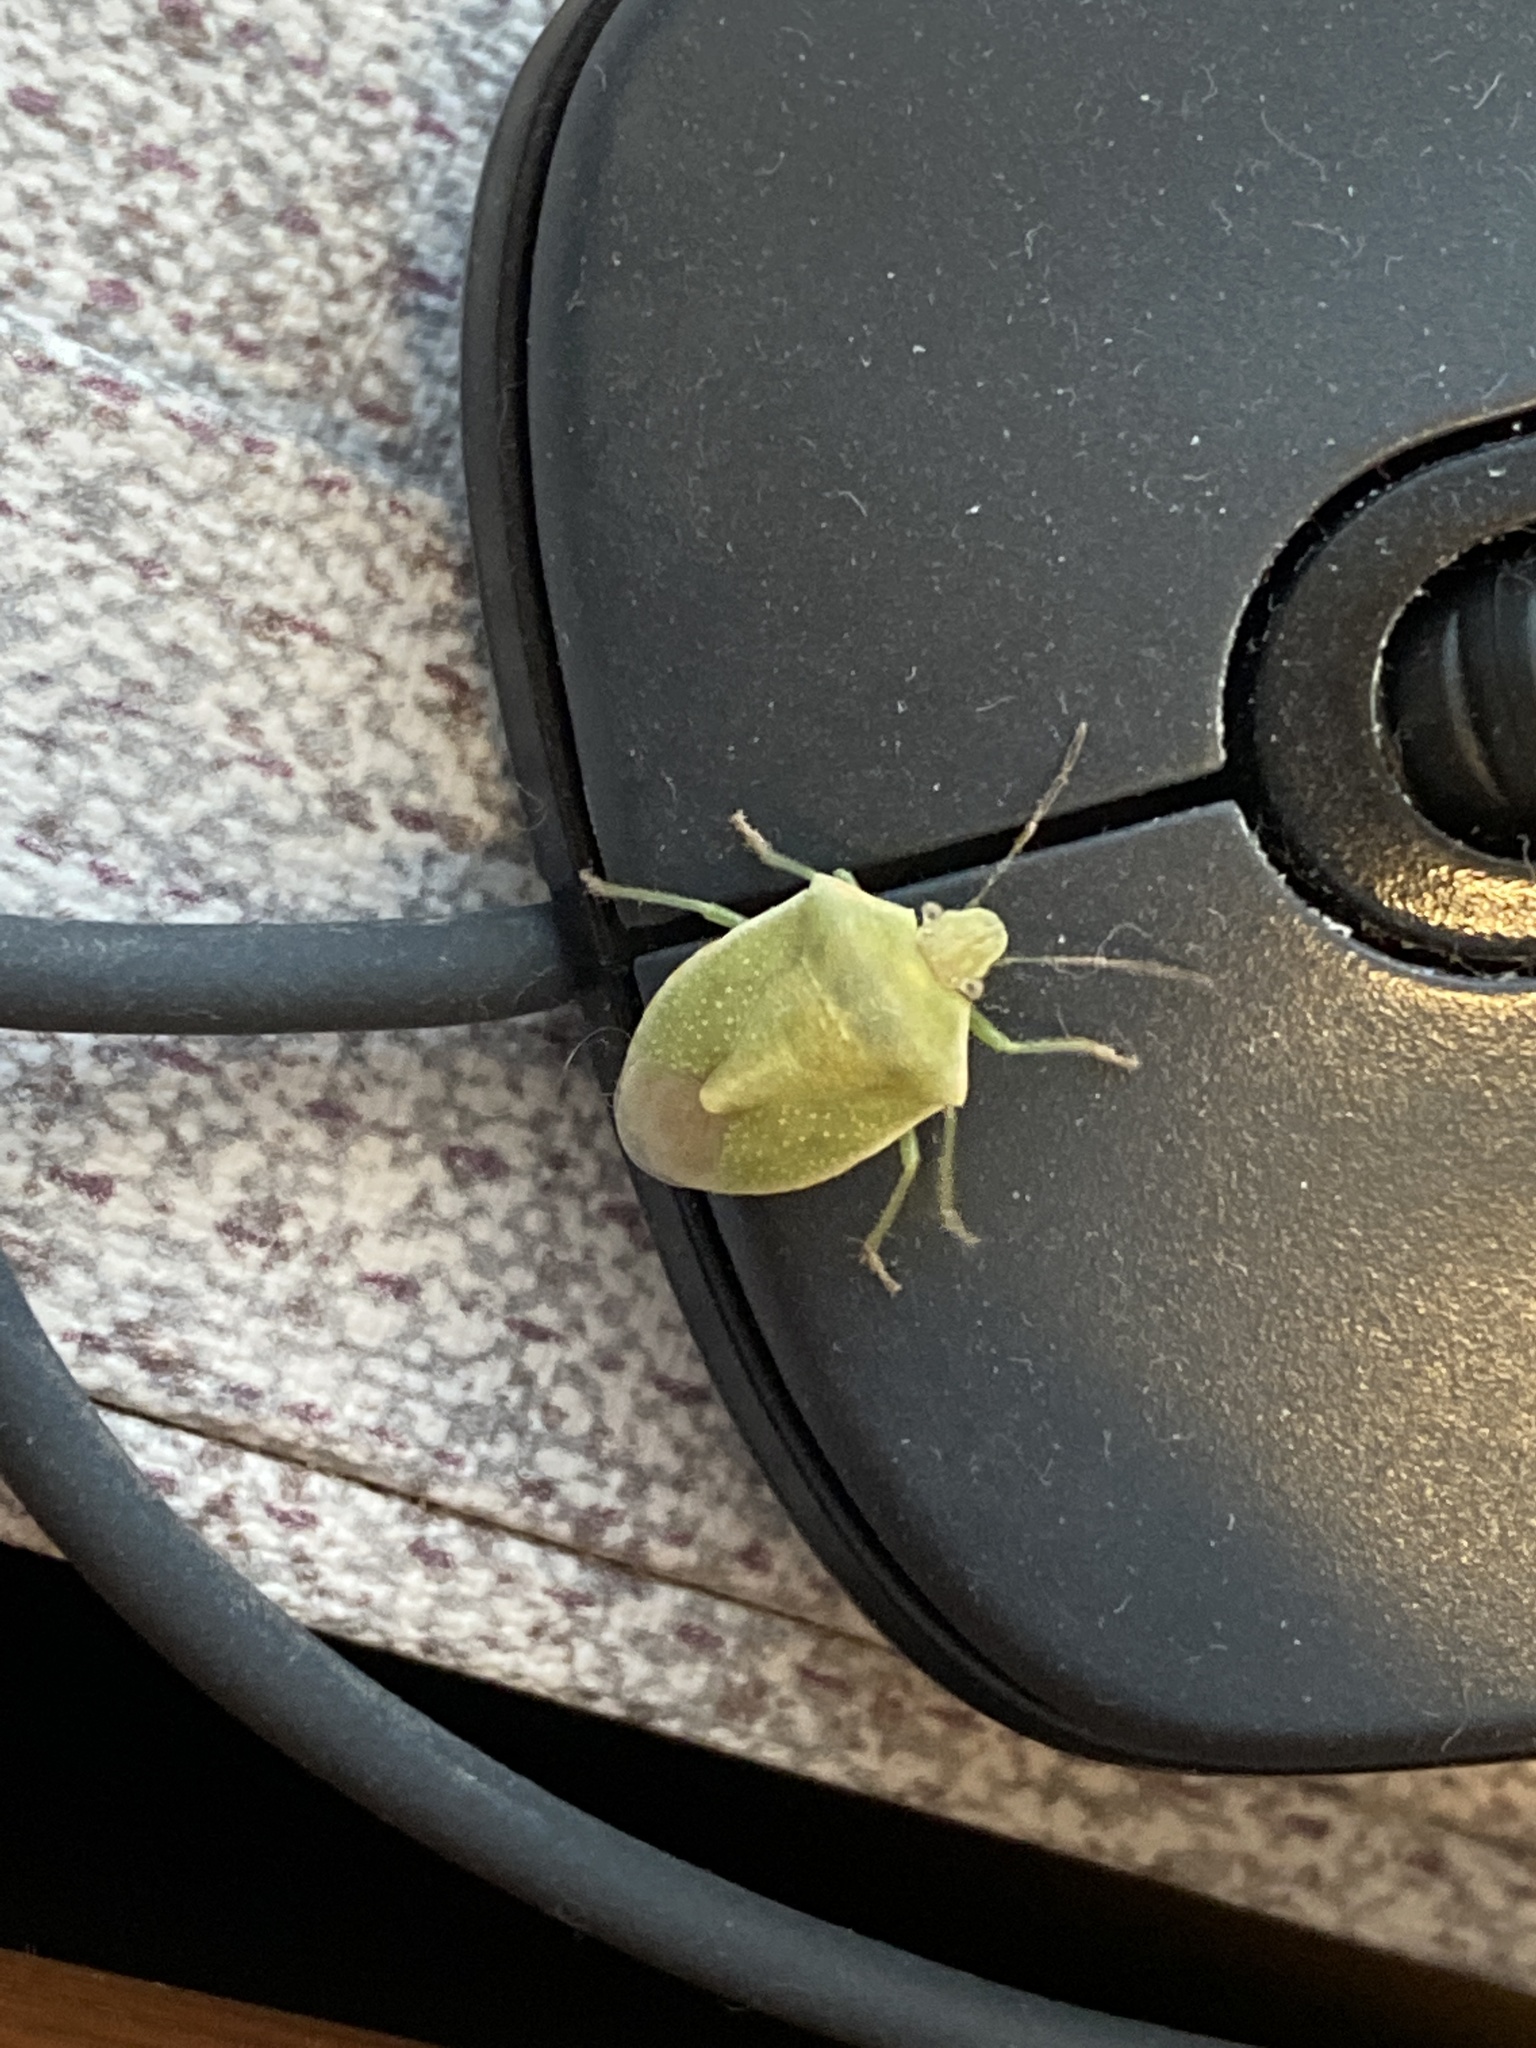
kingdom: Animalia
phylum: Arthropoda
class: Insecta
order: Hemiptera
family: Pentatomidae
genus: Thyanta
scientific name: Thyanta custator
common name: Stink bug
